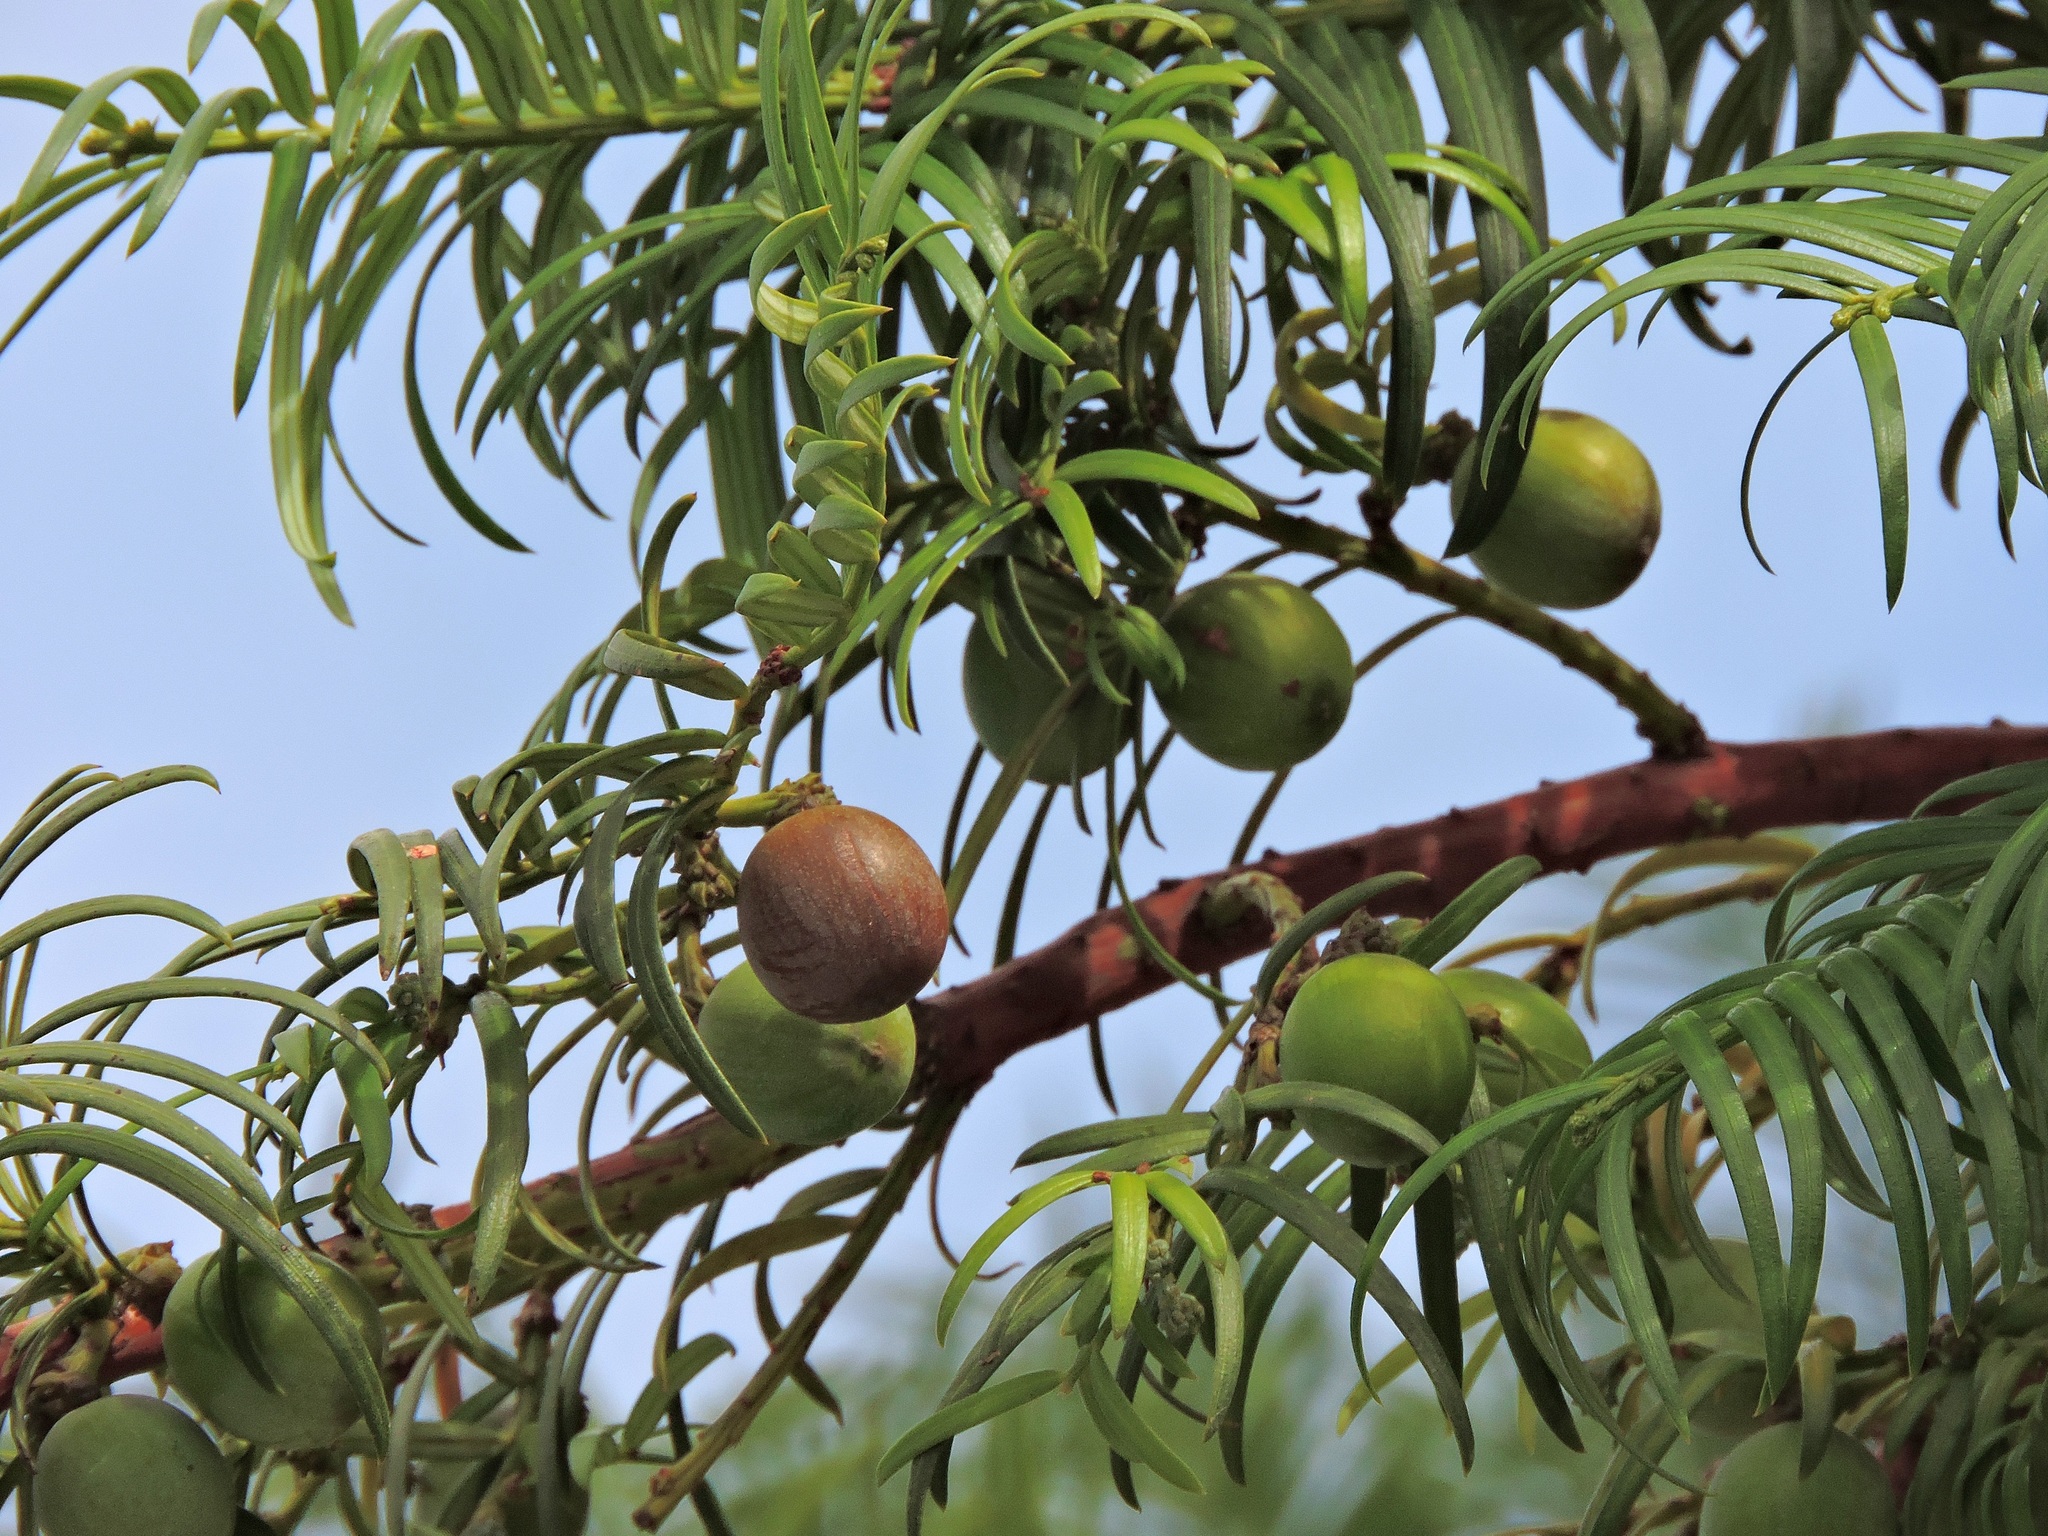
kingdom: Plantae
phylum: Tracheophyta
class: Pinopsida
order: Pinales
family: Cephalotaxaceae
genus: Cephalotaxus
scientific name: Cephalotaxus harringtonii
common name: Harrington's plum yew
